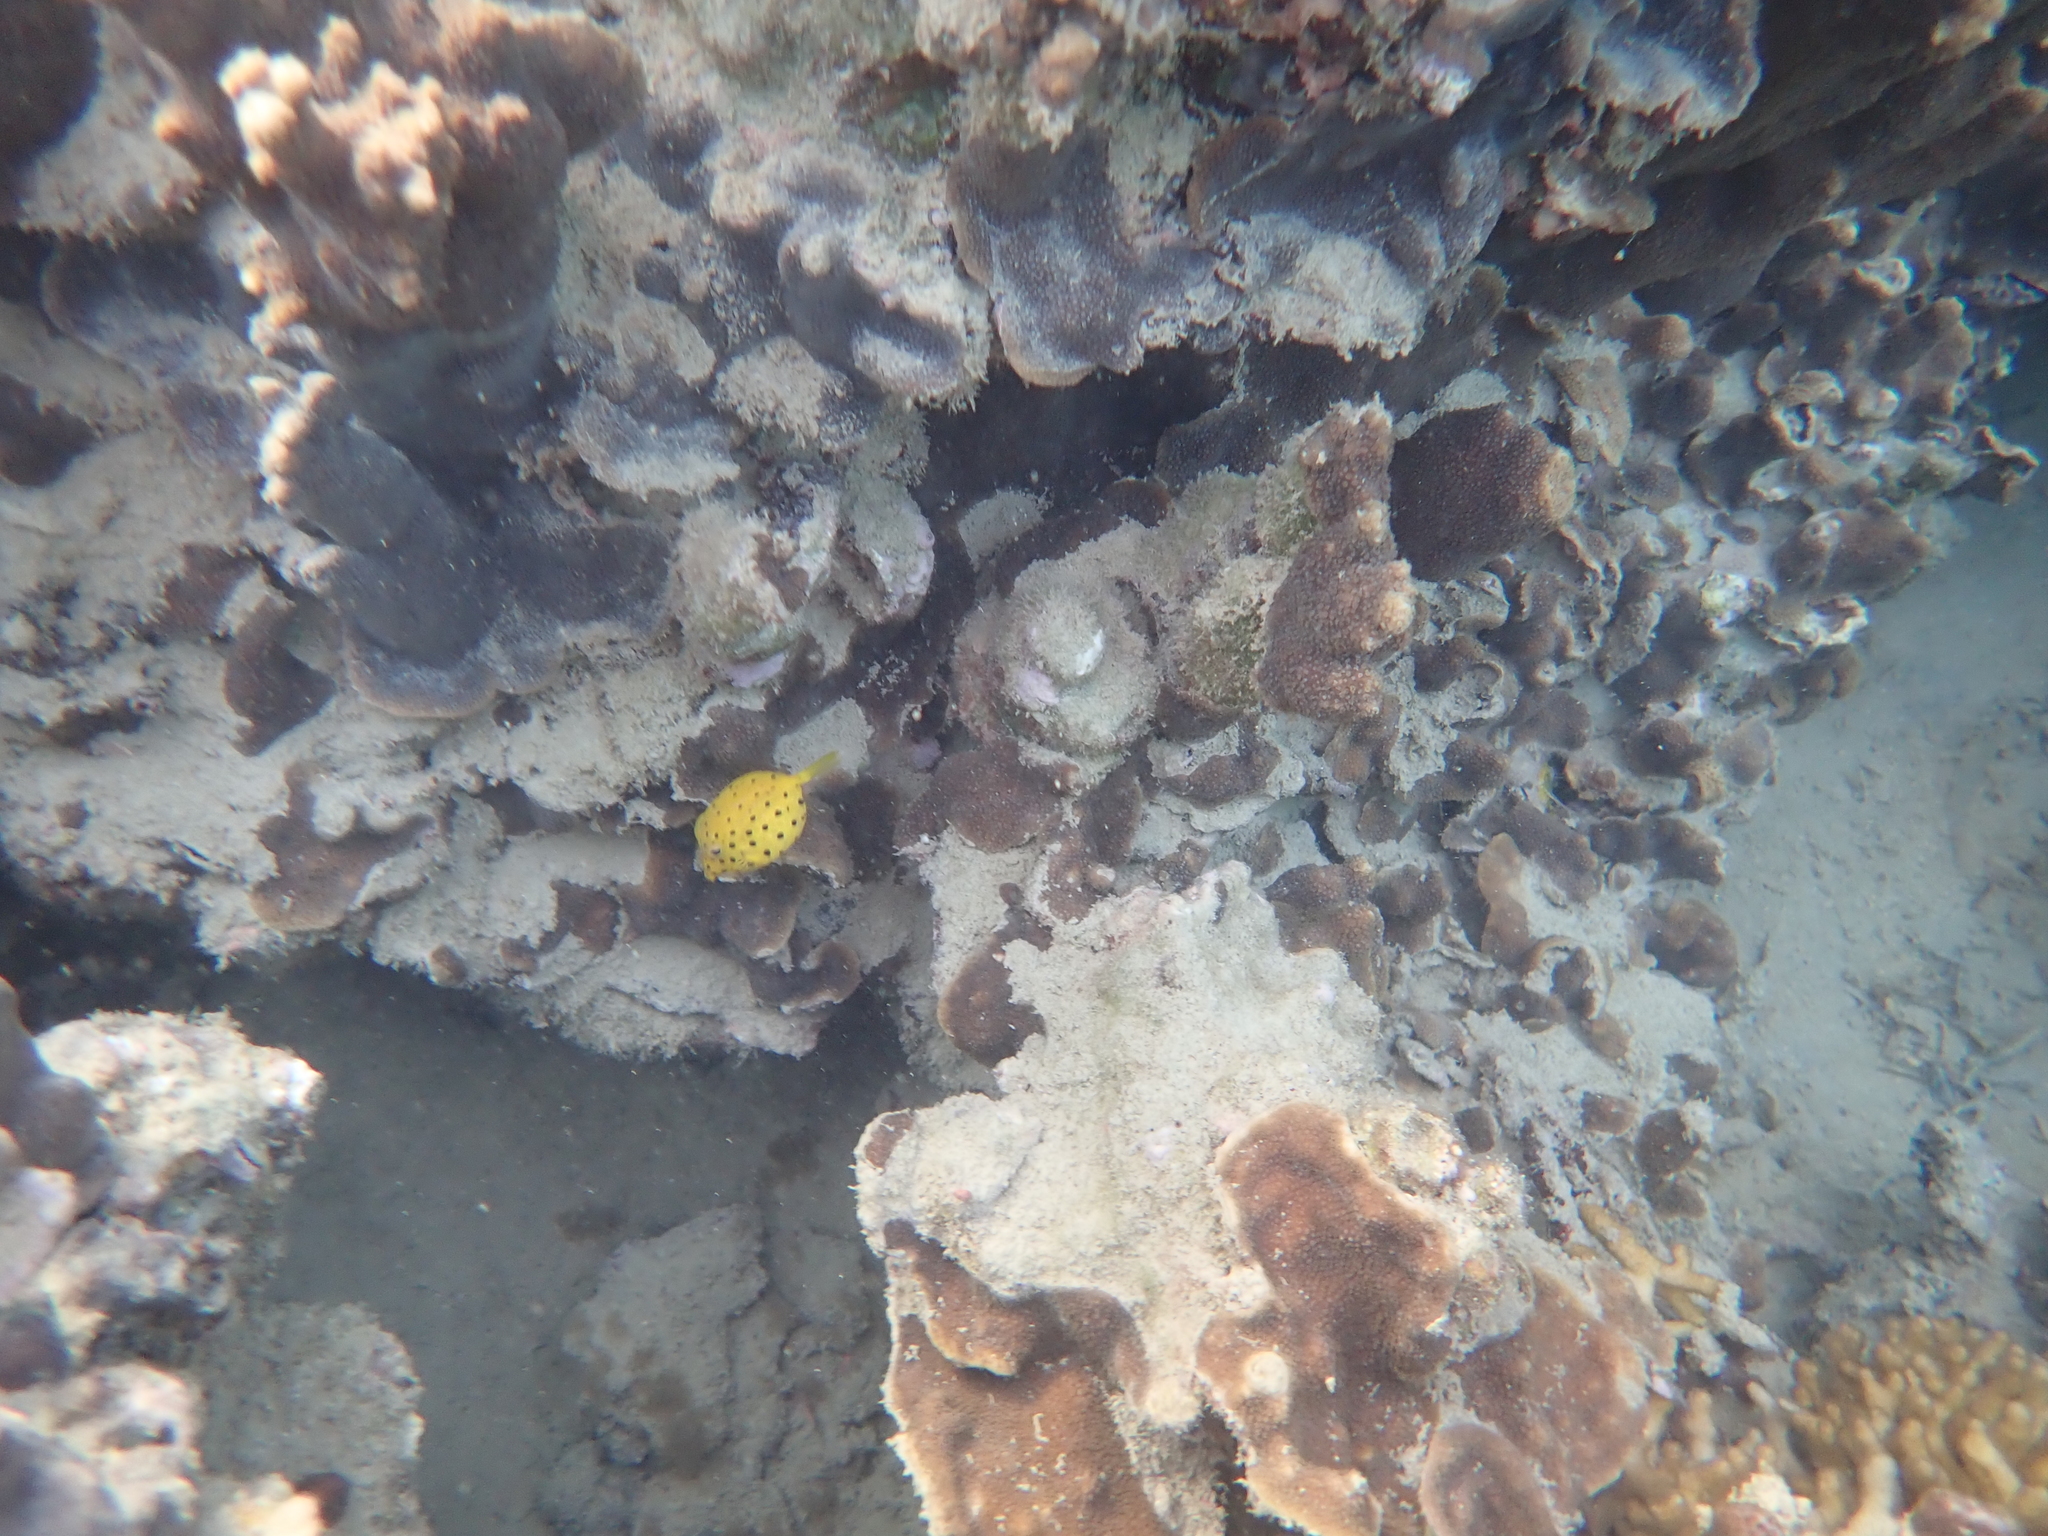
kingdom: Animalia
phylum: Chordata
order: Tetraodontiformes
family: Ostraciidae
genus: Ostracion
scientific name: Ostracion cubicus
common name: Cube trunkfish
